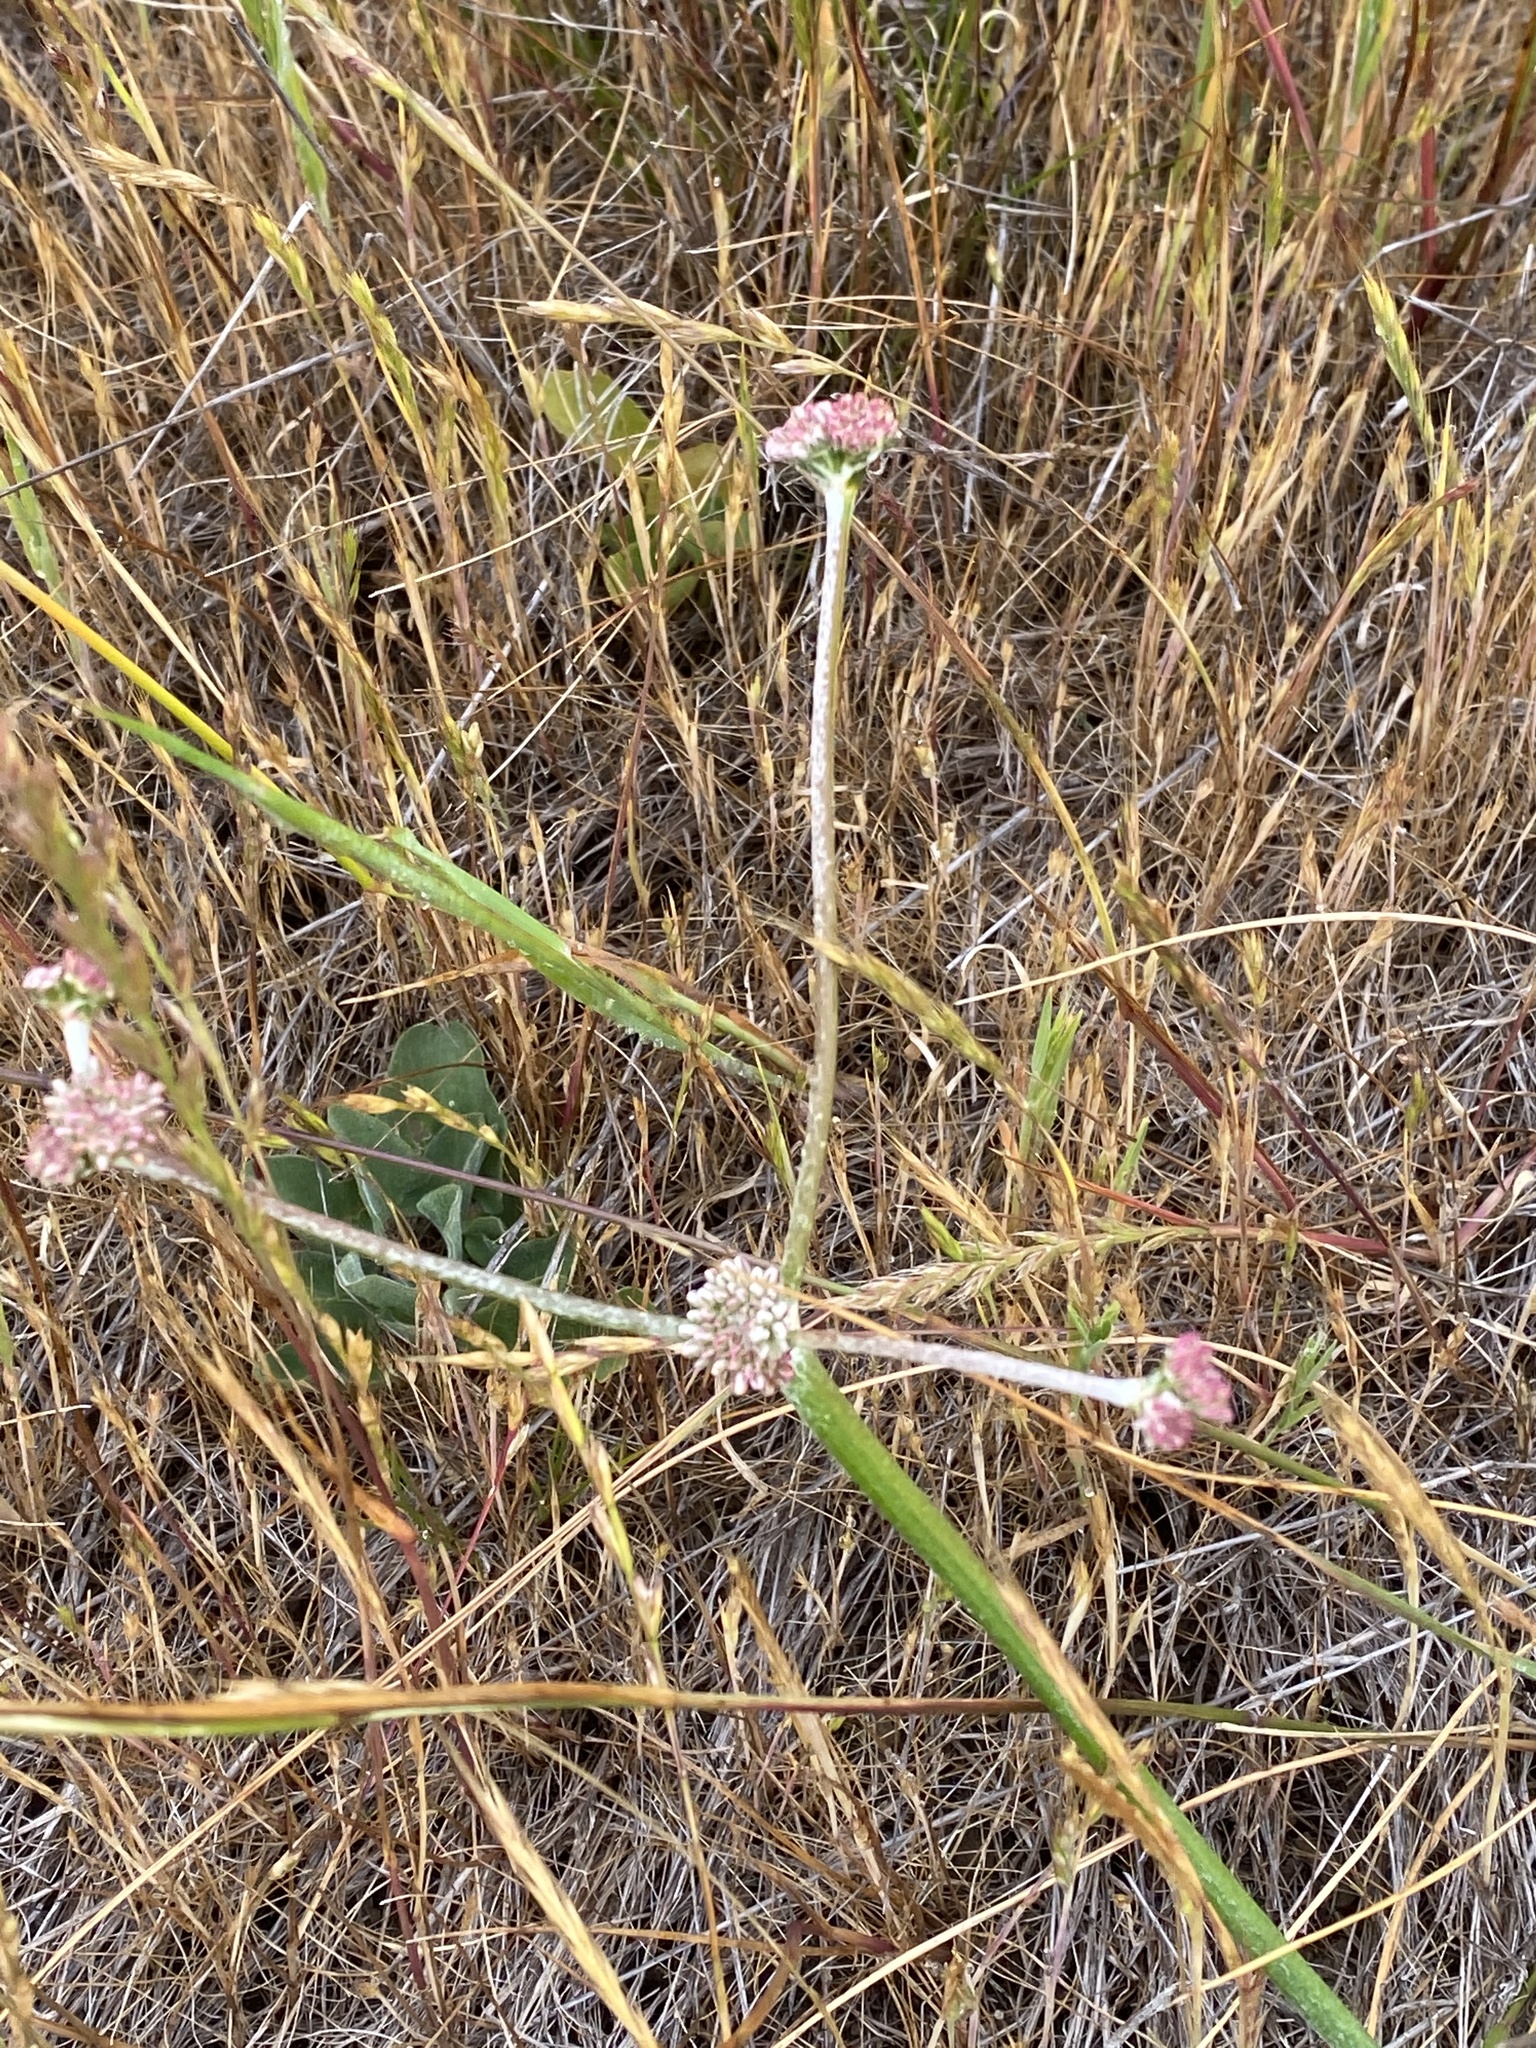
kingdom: Plantae
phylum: Tracheophyta
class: Magnoliopsida
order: Caryophyllales
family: Polygonaceae
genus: Eriogonum
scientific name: Eriogonum latifolium
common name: Seaside wild buckwheat
